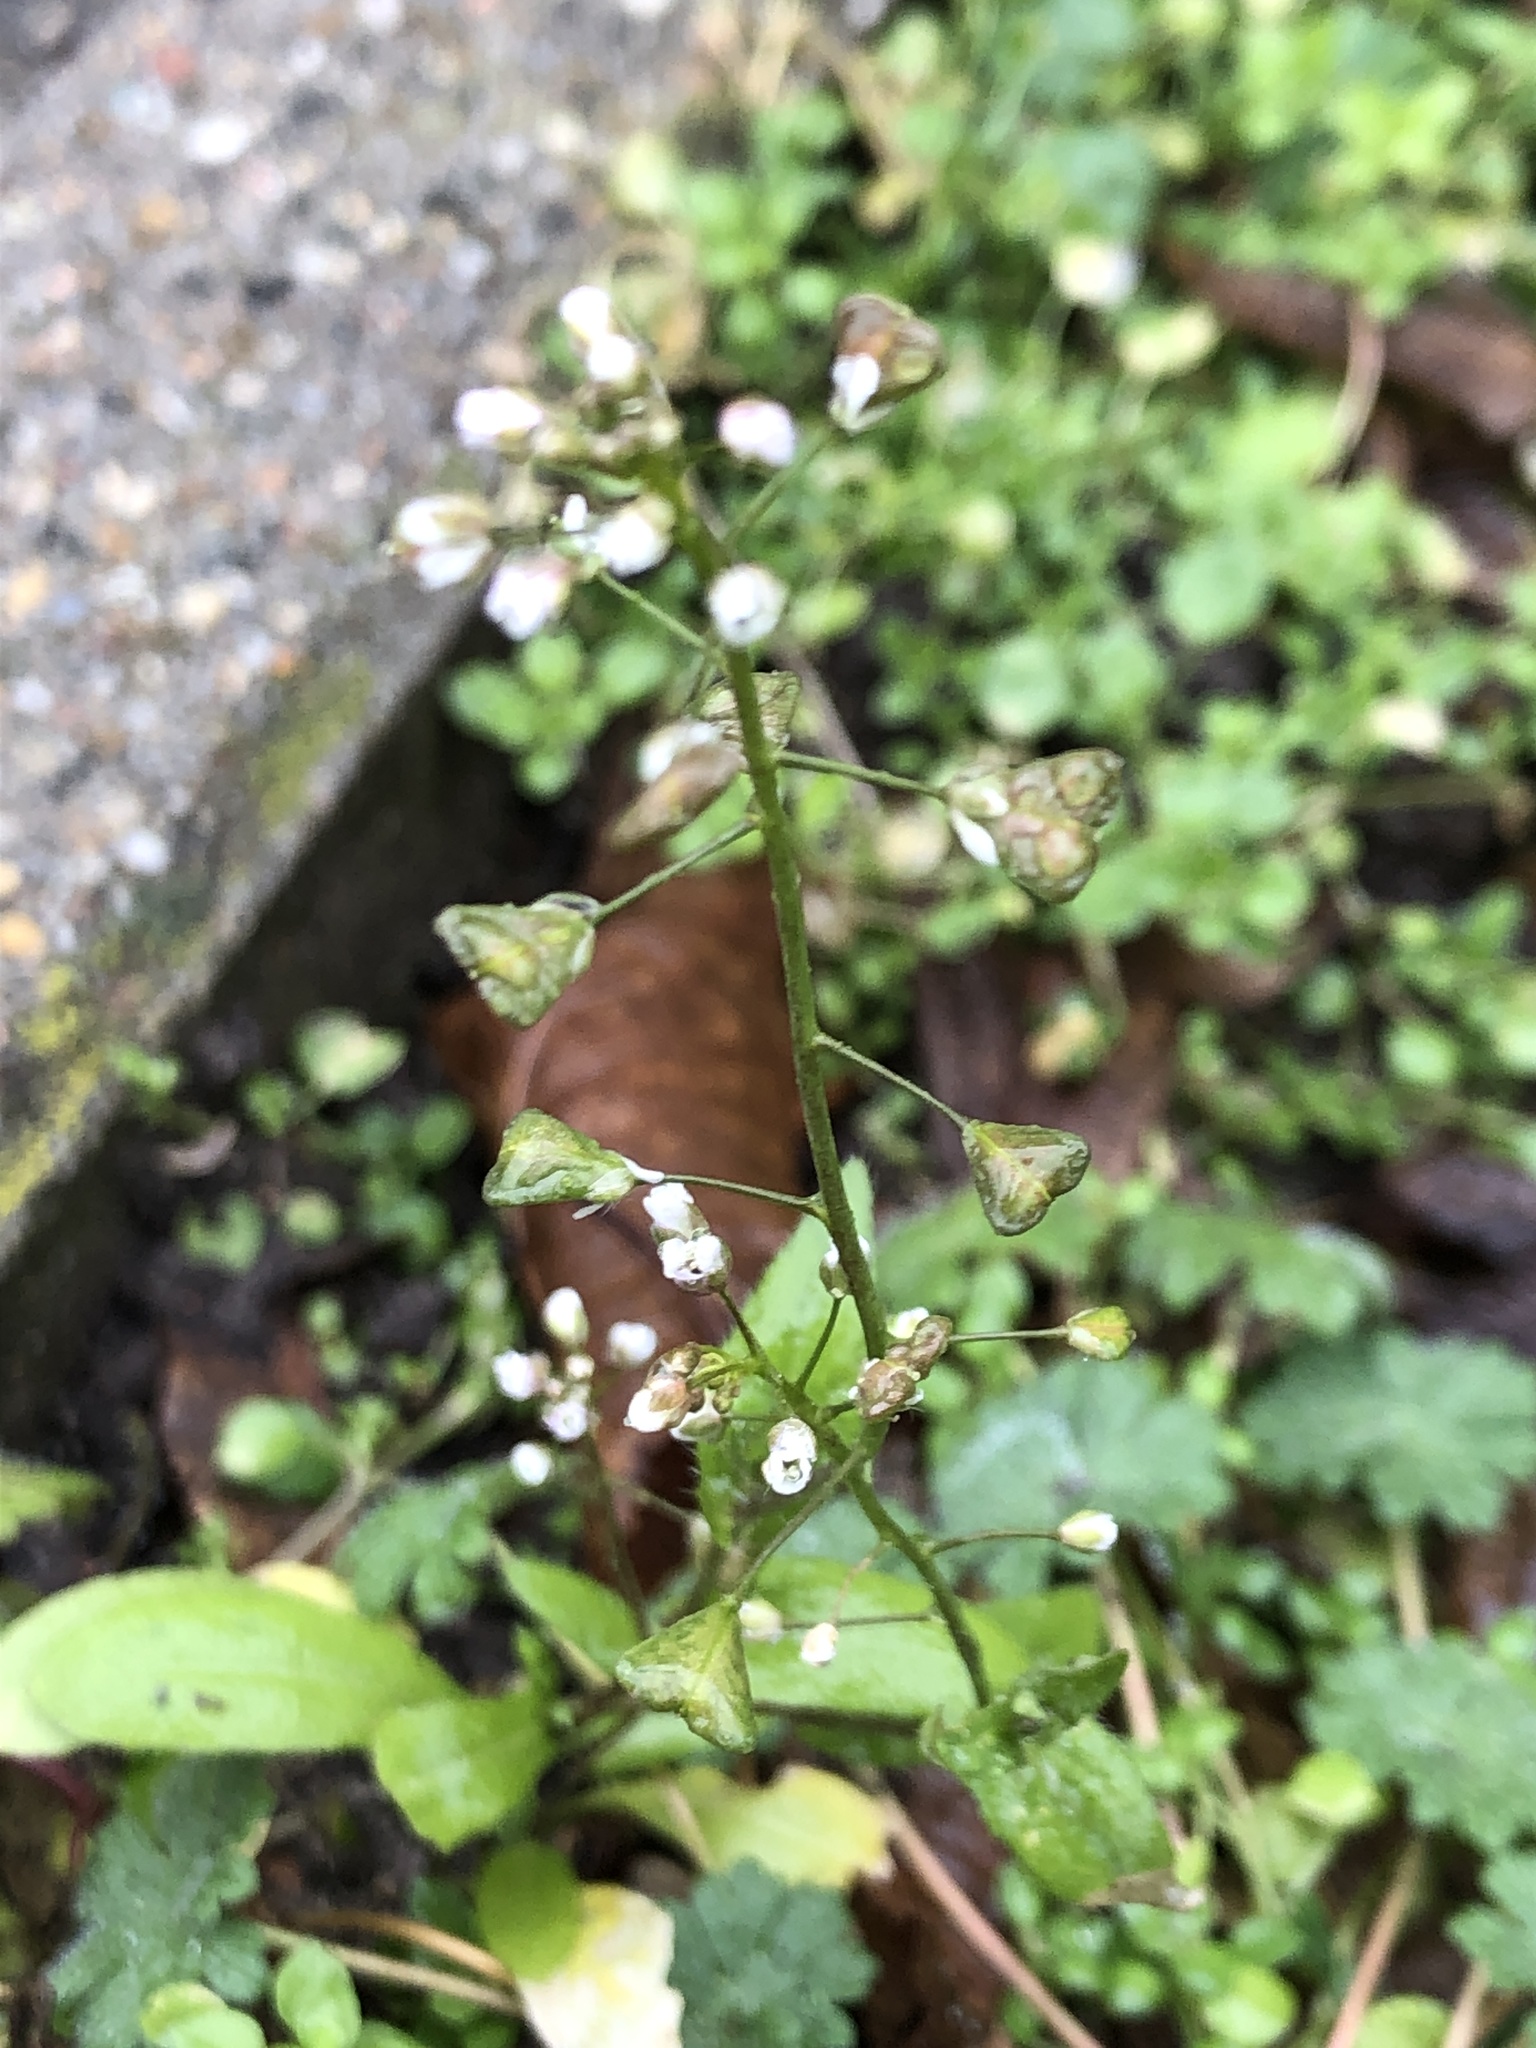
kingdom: Plantae
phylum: Tracheophyta
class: Magnoliopsida
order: Brassicales
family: Brassicaceae
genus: Capsella
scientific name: Capsella bursa-pastoris
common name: Shepherd's purse
